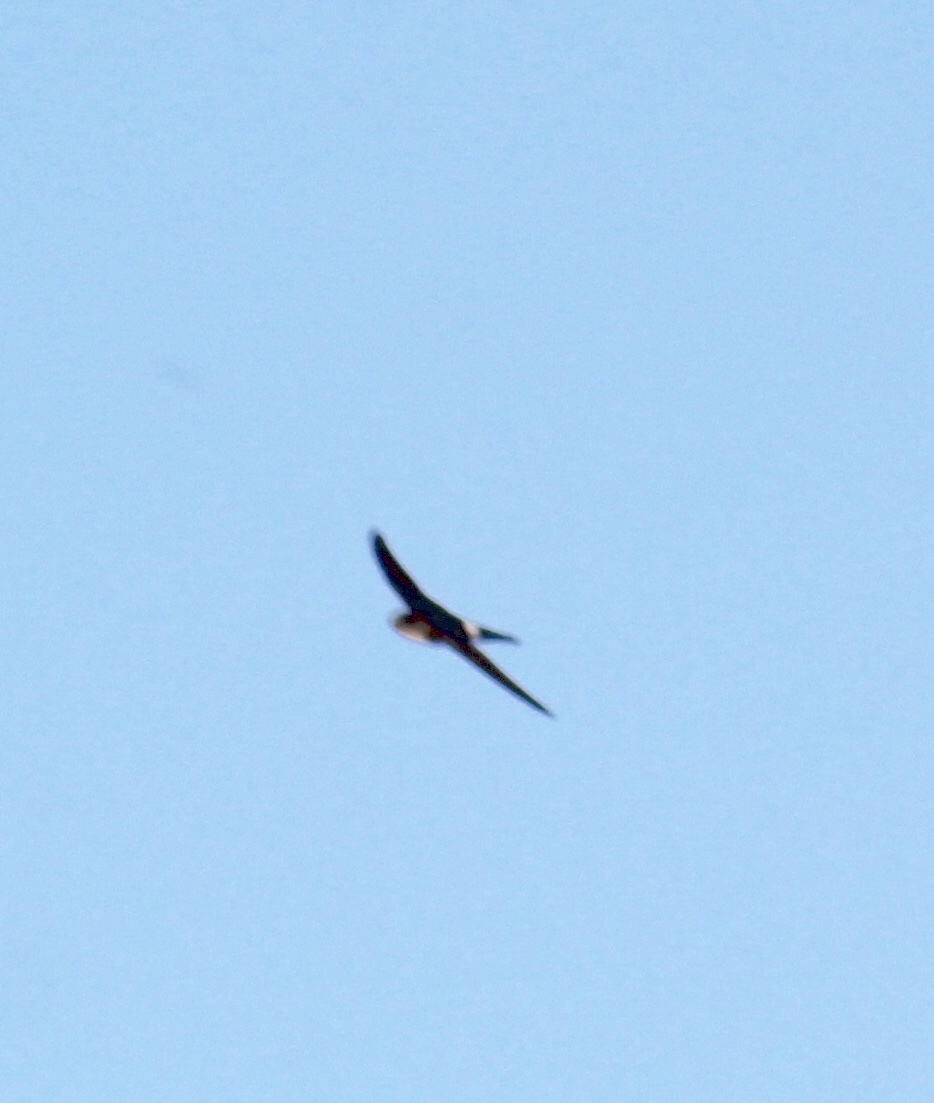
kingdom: Animalia
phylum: Chordata
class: Aves
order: Apodiformes
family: Apodidae
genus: Tachornis
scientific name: Tachornis phoenicobia
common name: Antillean palm swift
